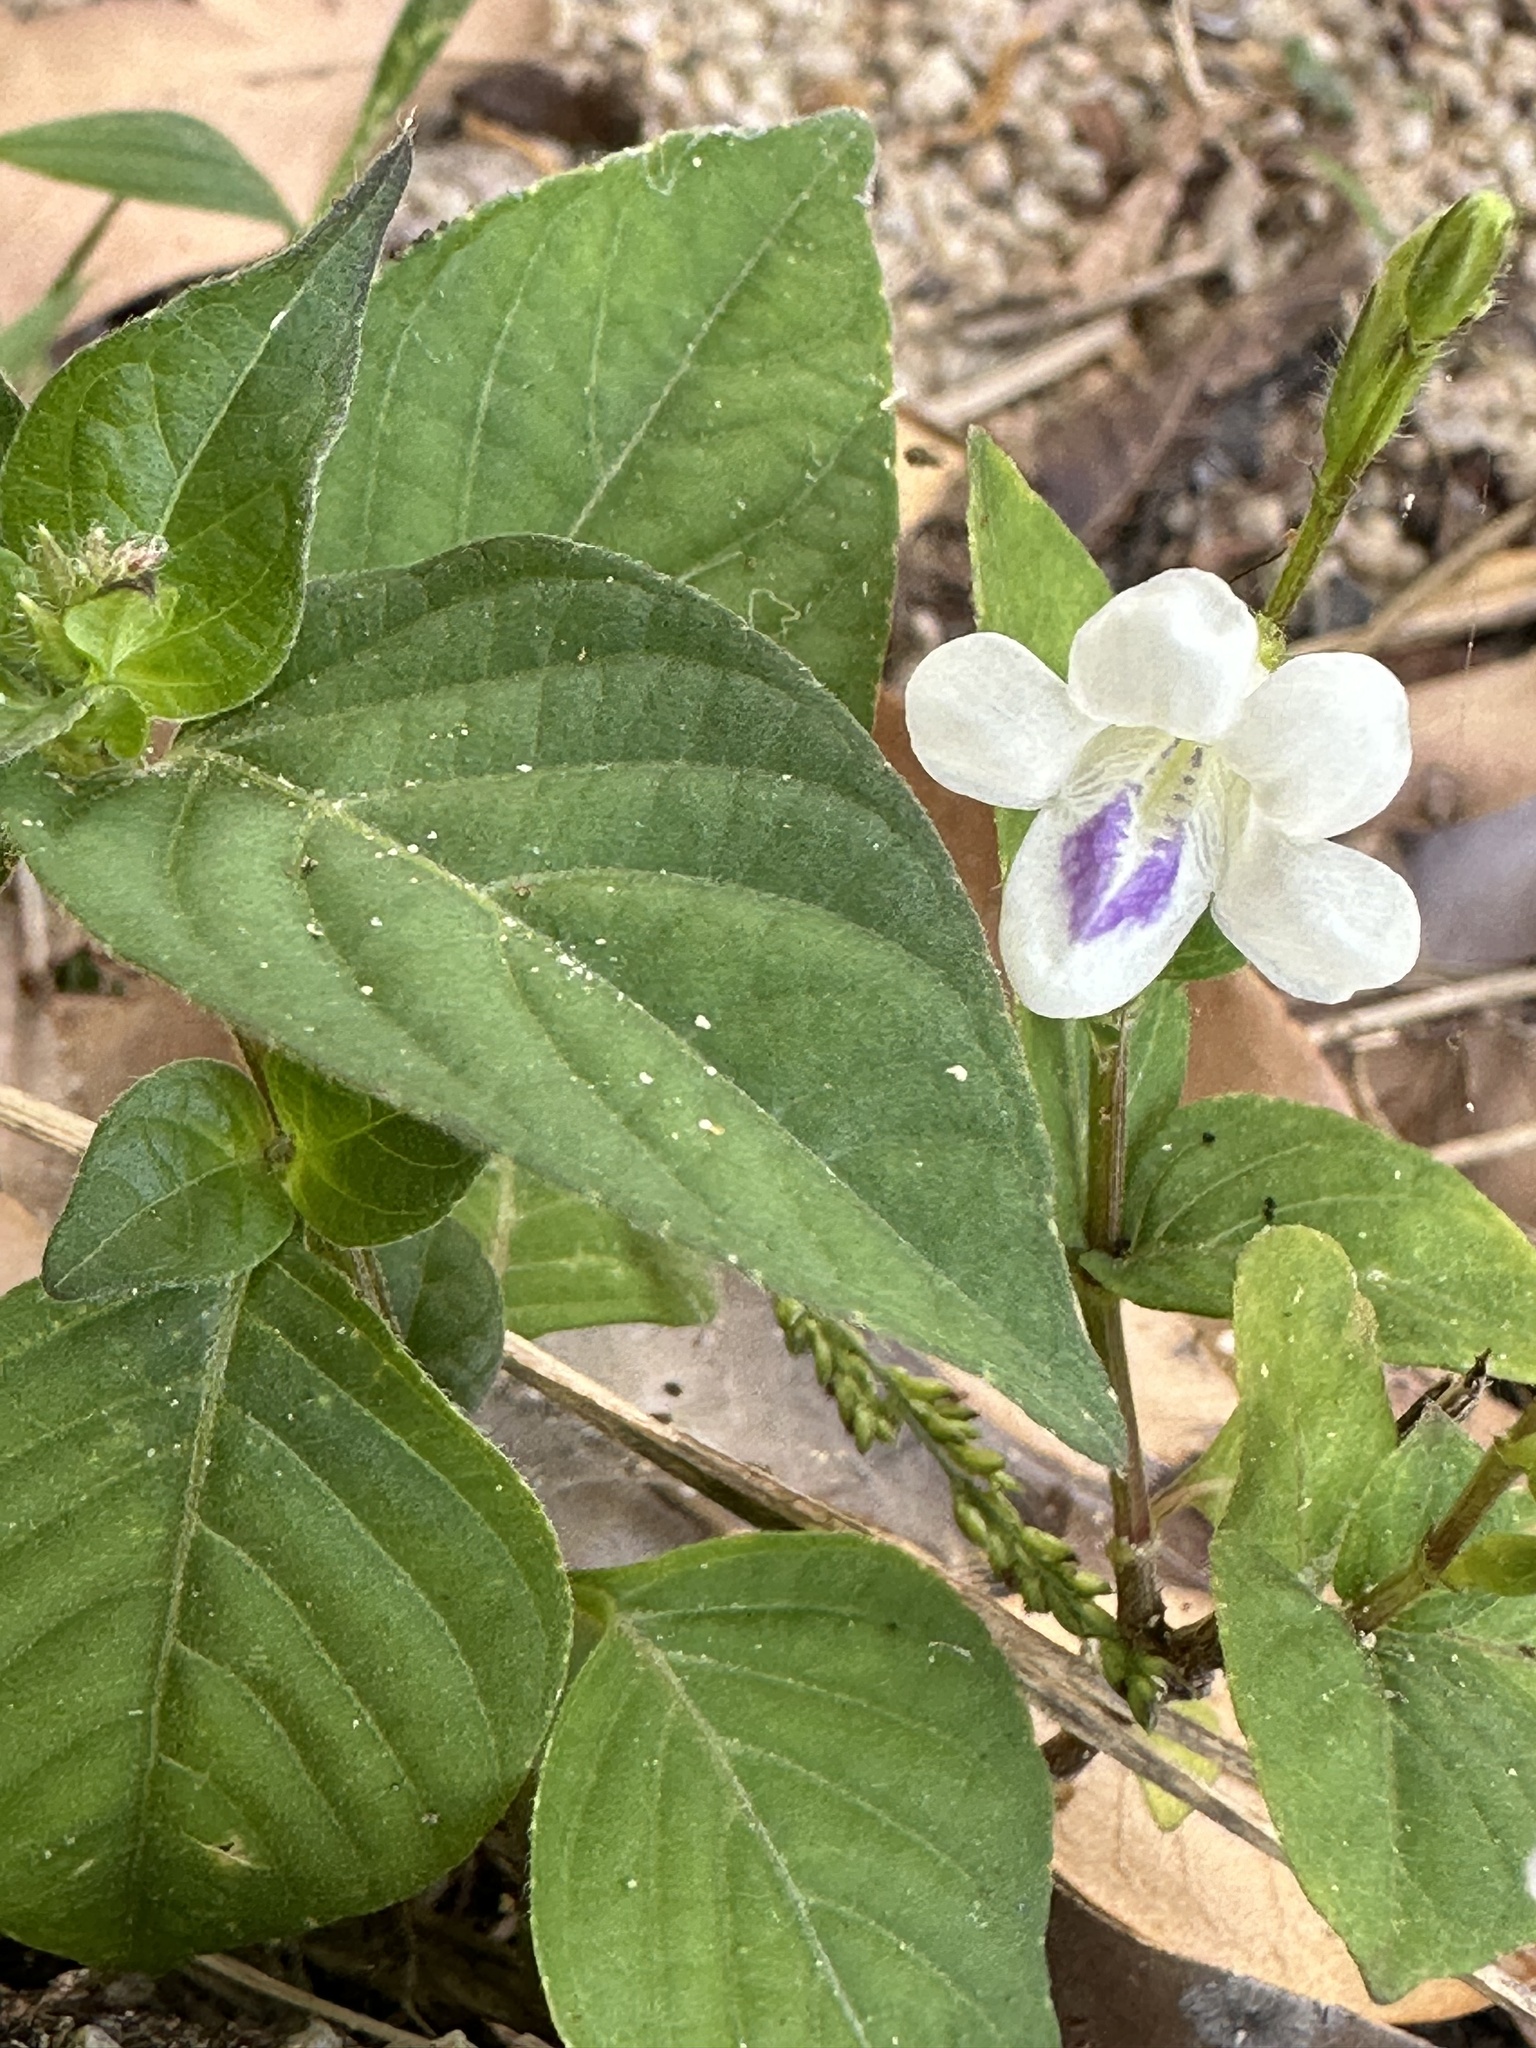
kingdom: Plantae
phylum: Tracheophyta
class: Magnoliopsida
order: Lamiales
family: Acanthaceae
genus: Asystasia
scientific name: Asystasia intrusa
